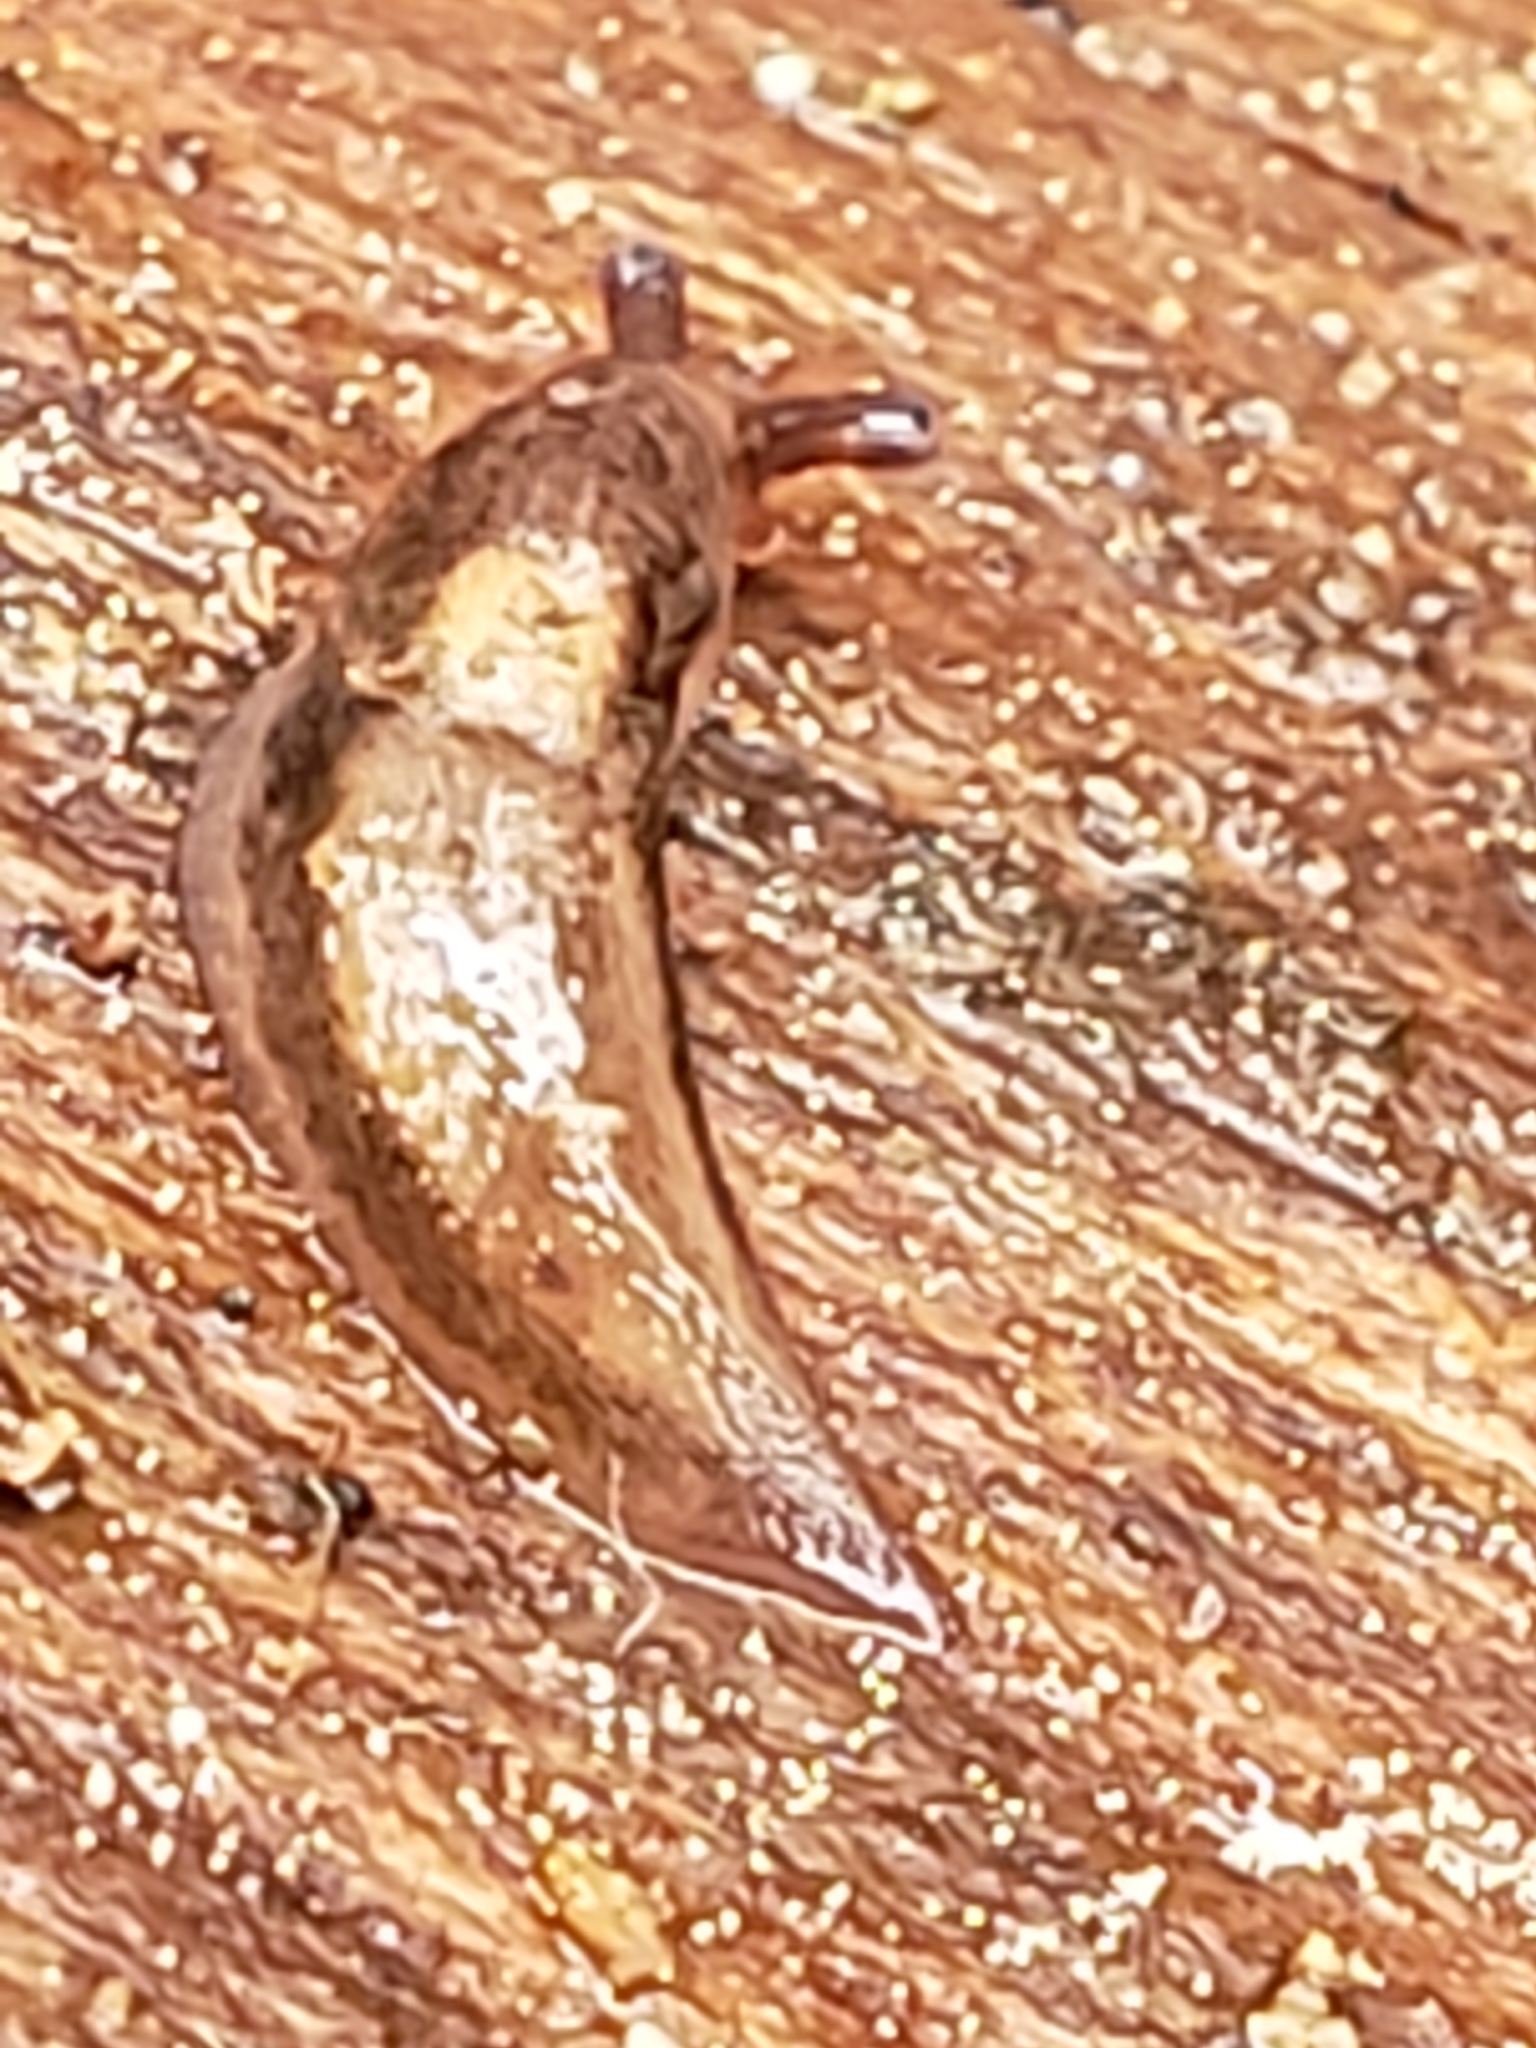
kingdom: Animalia
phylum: Mollusca
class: Gastropoda
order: Stylommatophora
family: Limacidae
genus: Limax
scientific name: Limax maximus
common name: Great grey slug
